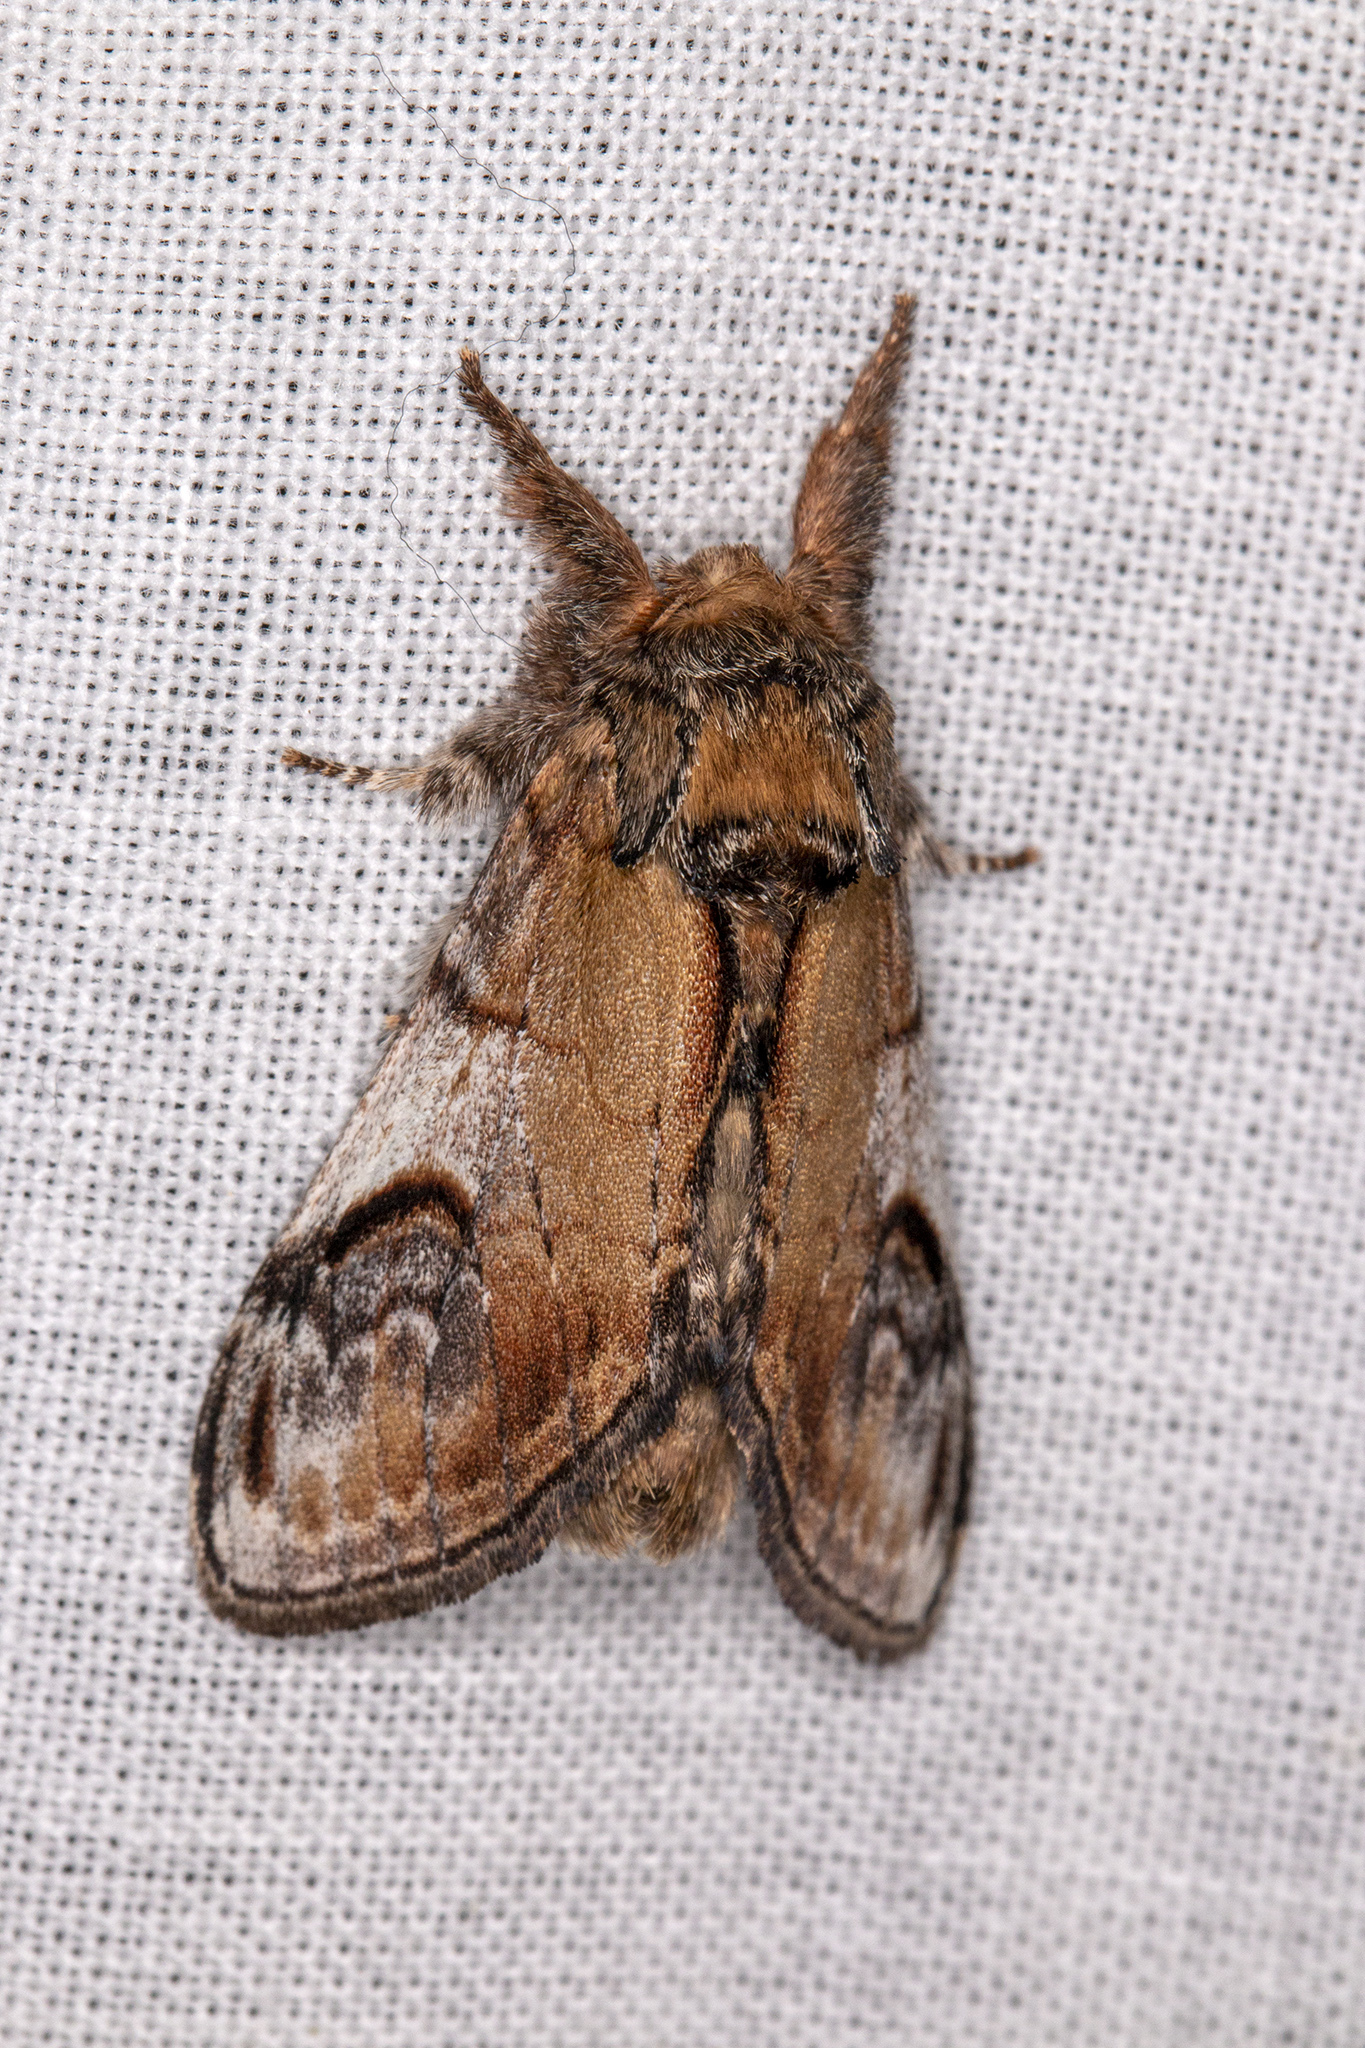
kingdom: Animalia
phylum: Arthropoda
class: Insecta
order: Lepidoptera
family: Notodontidae
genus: Notodonta
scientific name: Notodonta ziczac
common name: Pebble prominent
